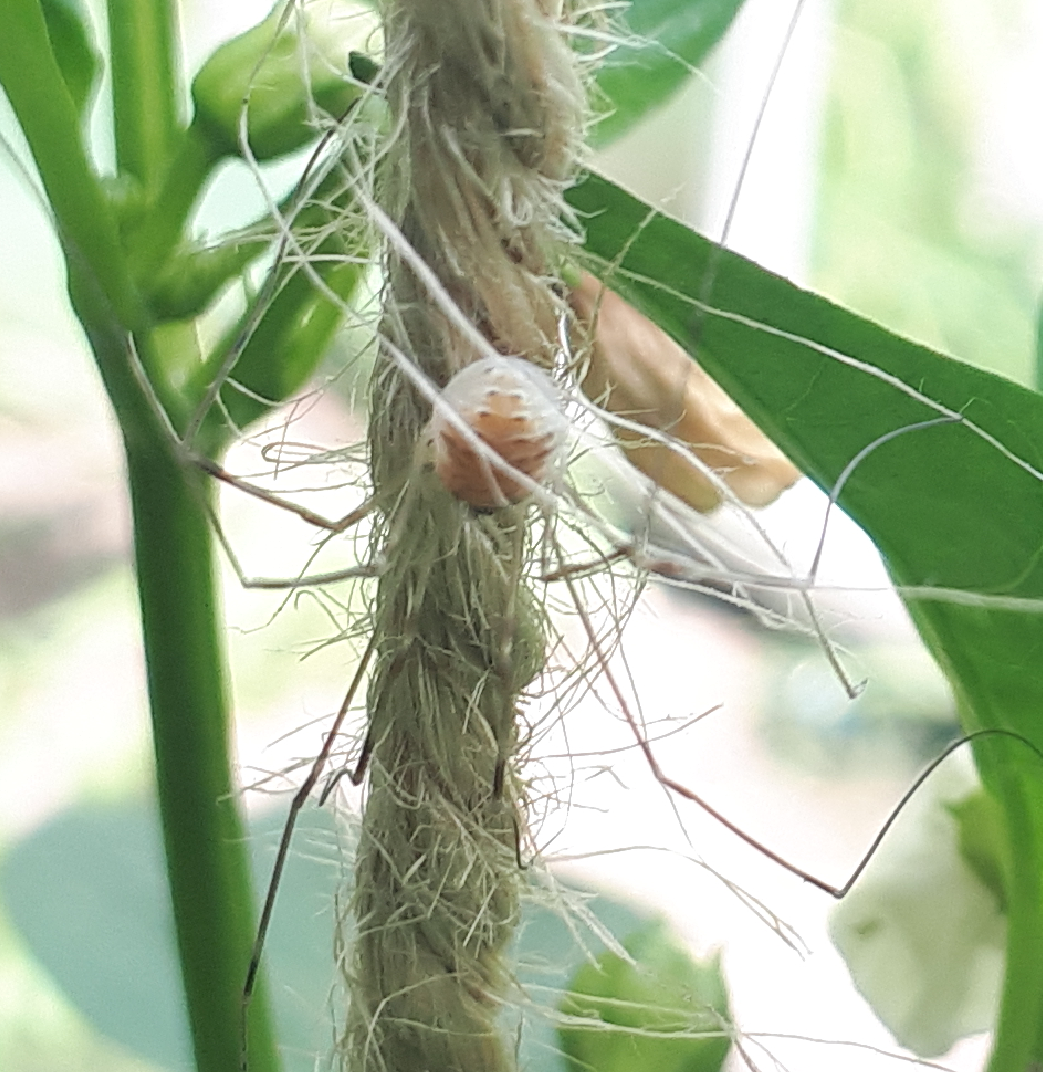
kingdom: Animalia
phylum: Arthropoda
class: Arachnida
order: Opiliones
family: Phalangiidae
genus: Opilio
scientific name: Opilio canestrinii
